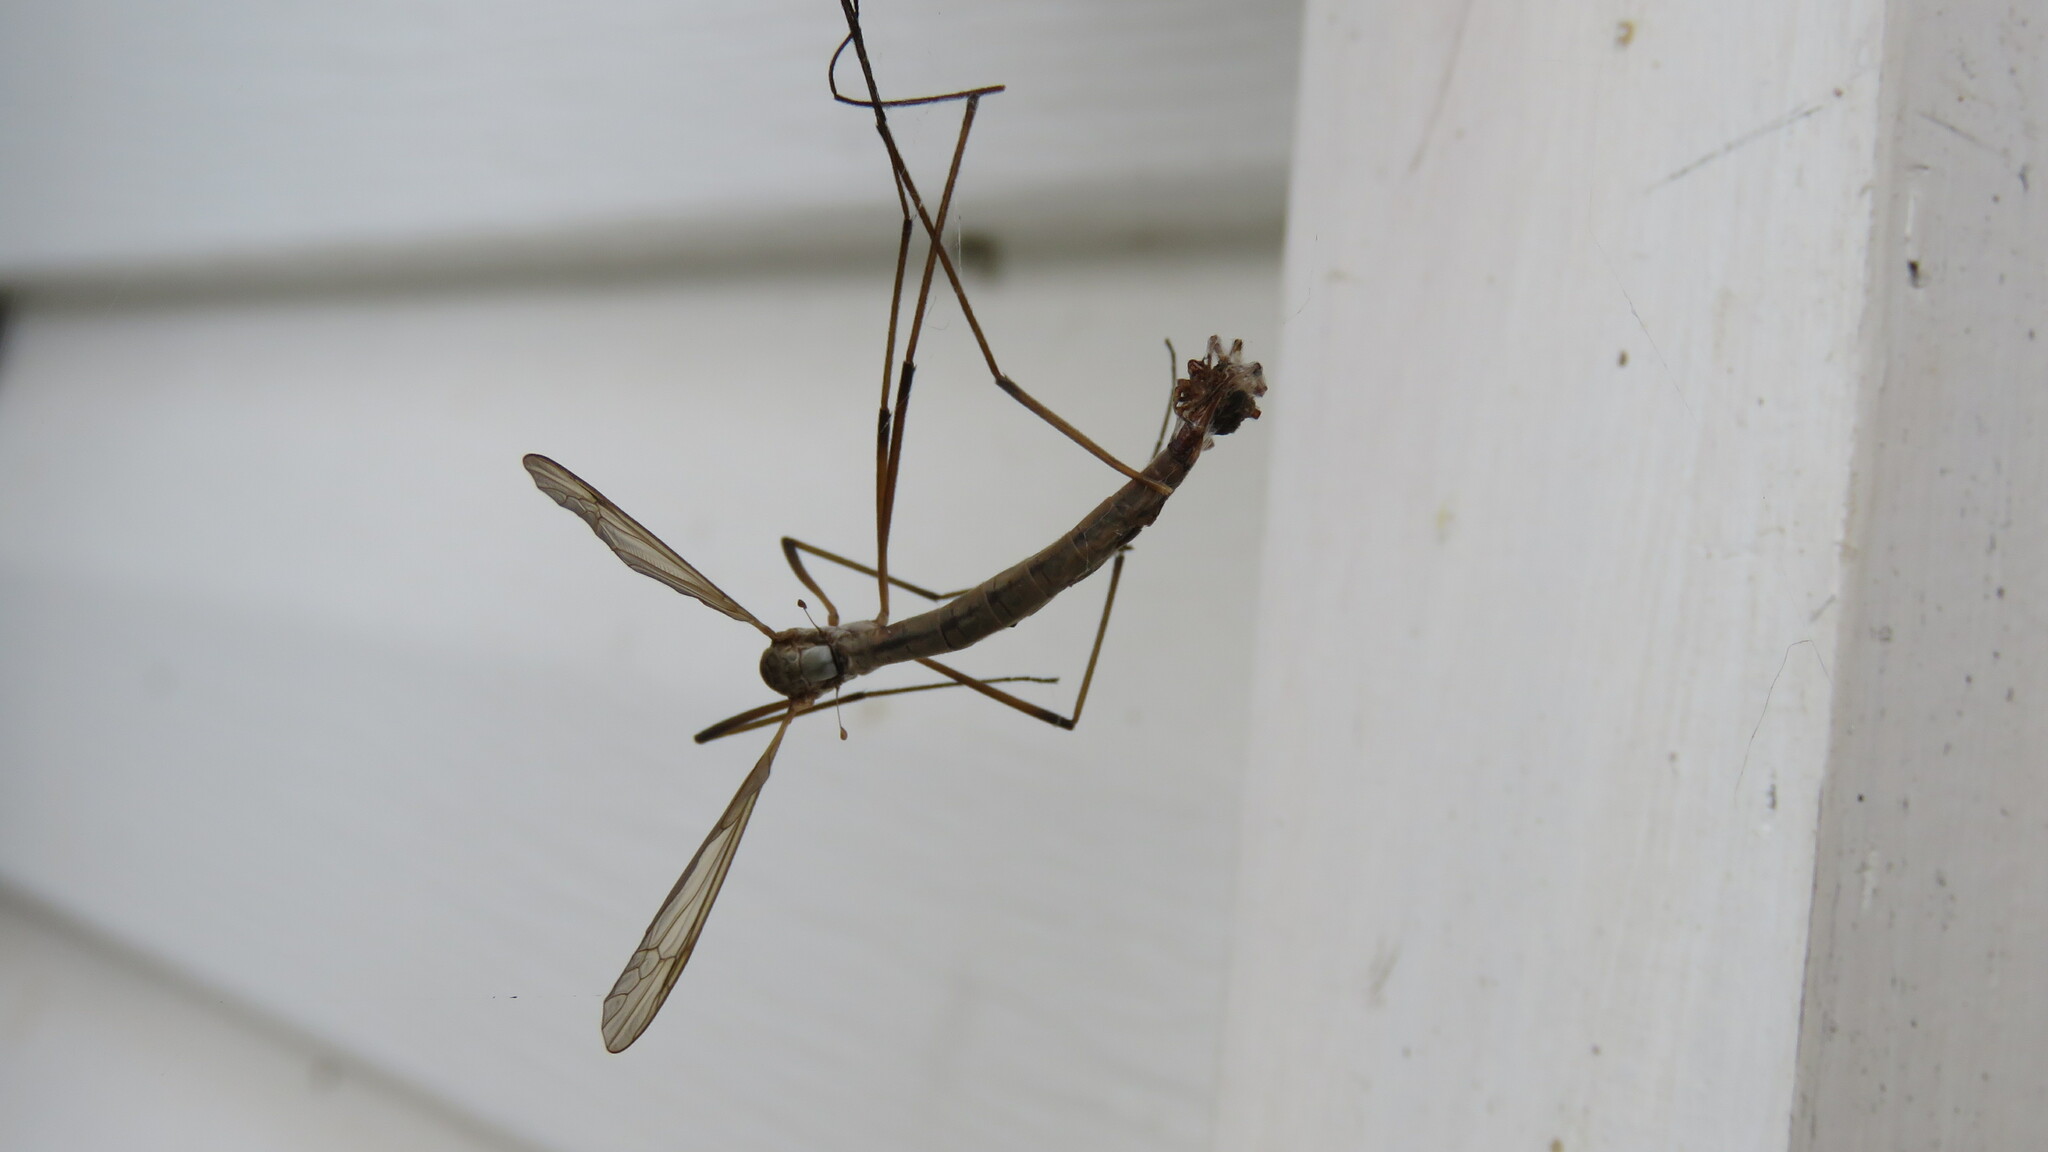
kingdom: Animalia
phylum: Arthropoda
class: Insecta
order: Diptera
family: Tipulidae
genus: Tipula
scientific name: Tipula paludosa
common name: European cranefly
